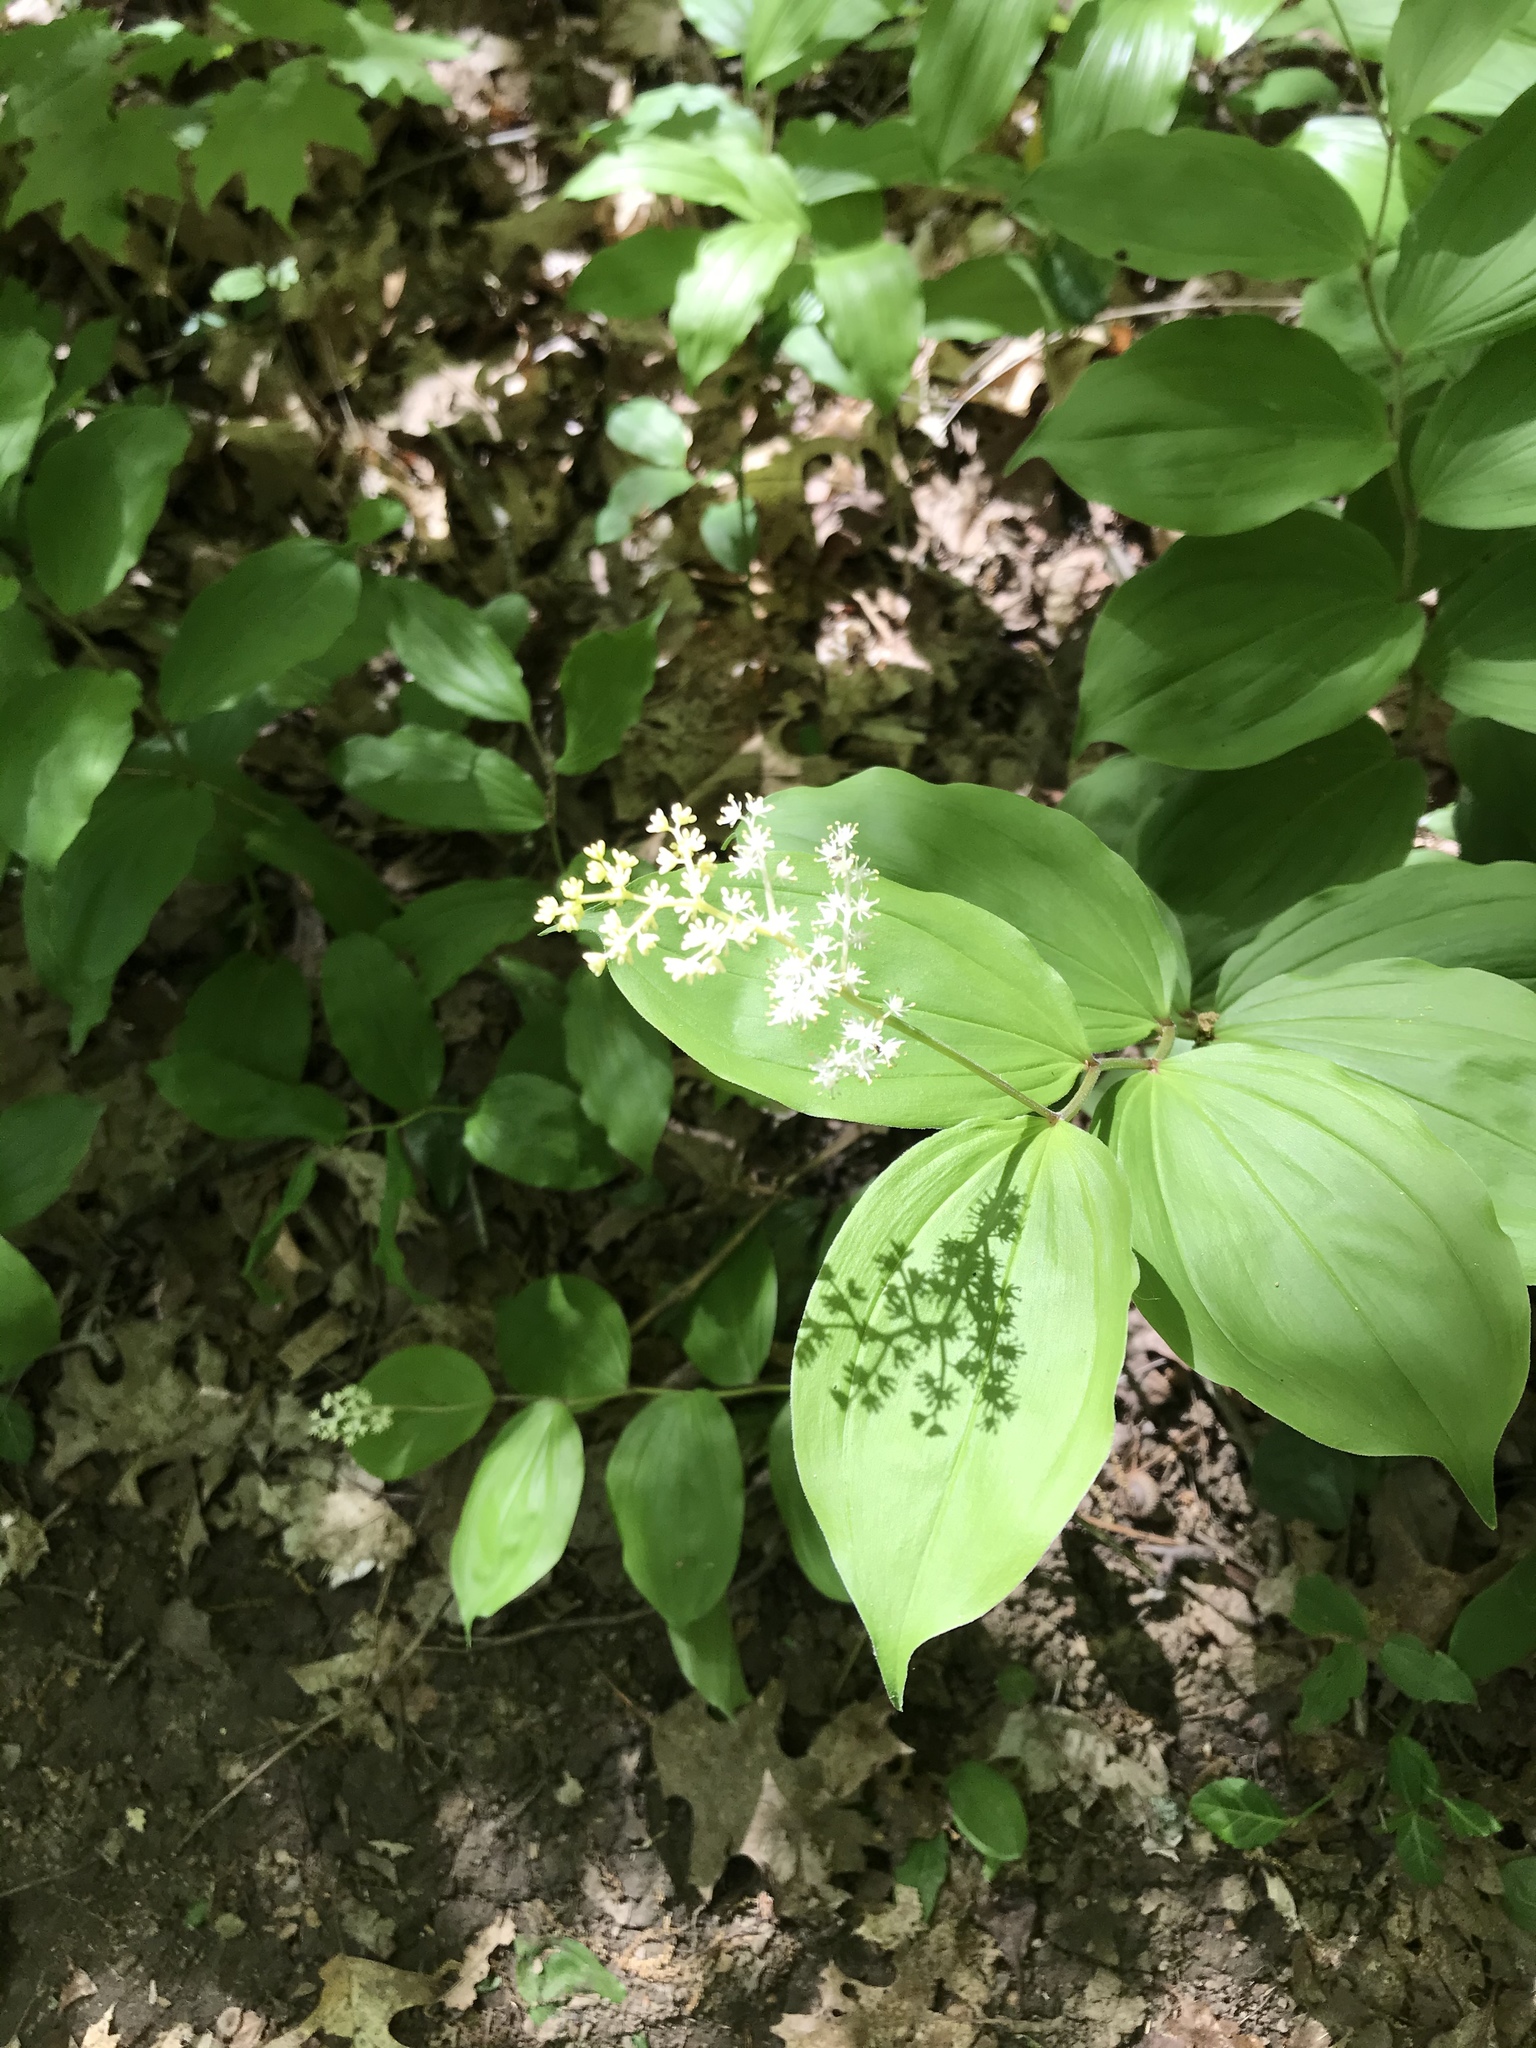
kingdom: Plantae
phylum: Tracheophyta
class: Liliopsida
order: Asparagales
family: Asparagaceae
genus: Maianthemum
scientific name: Maianthemum racemosum
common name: False spikenard
